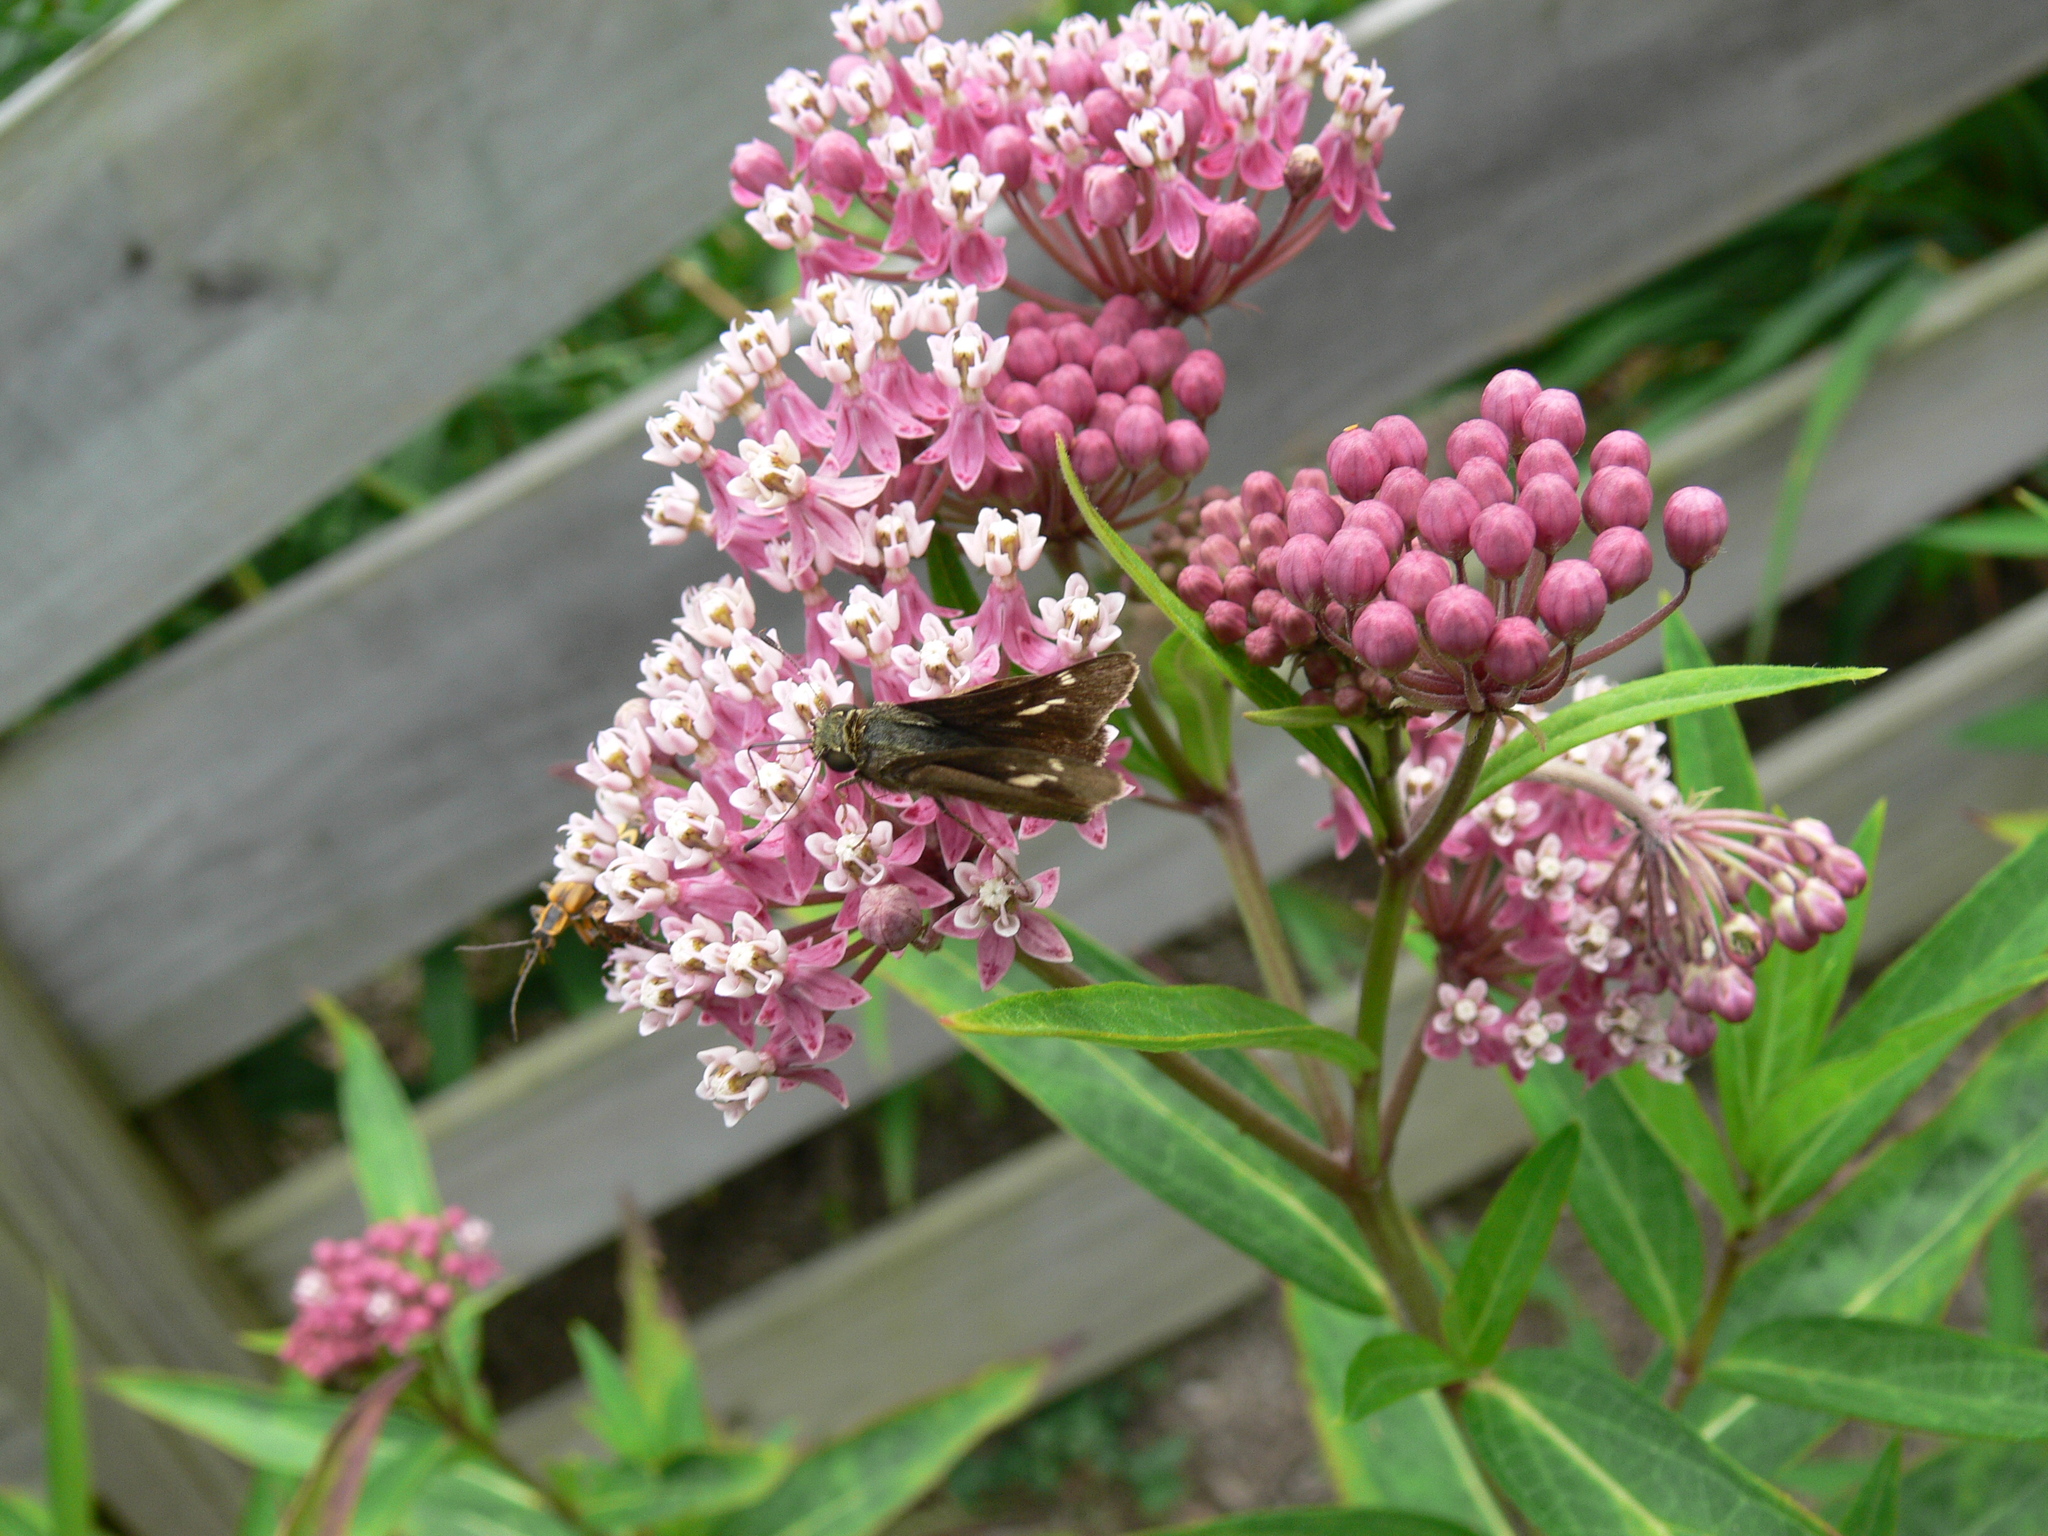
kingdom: Animalia
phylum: Arthropoda
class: Insecta
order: Lepidoptera
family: Hesperiidae
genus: Vernia
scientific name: Vernia verna
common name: Little glassywing
